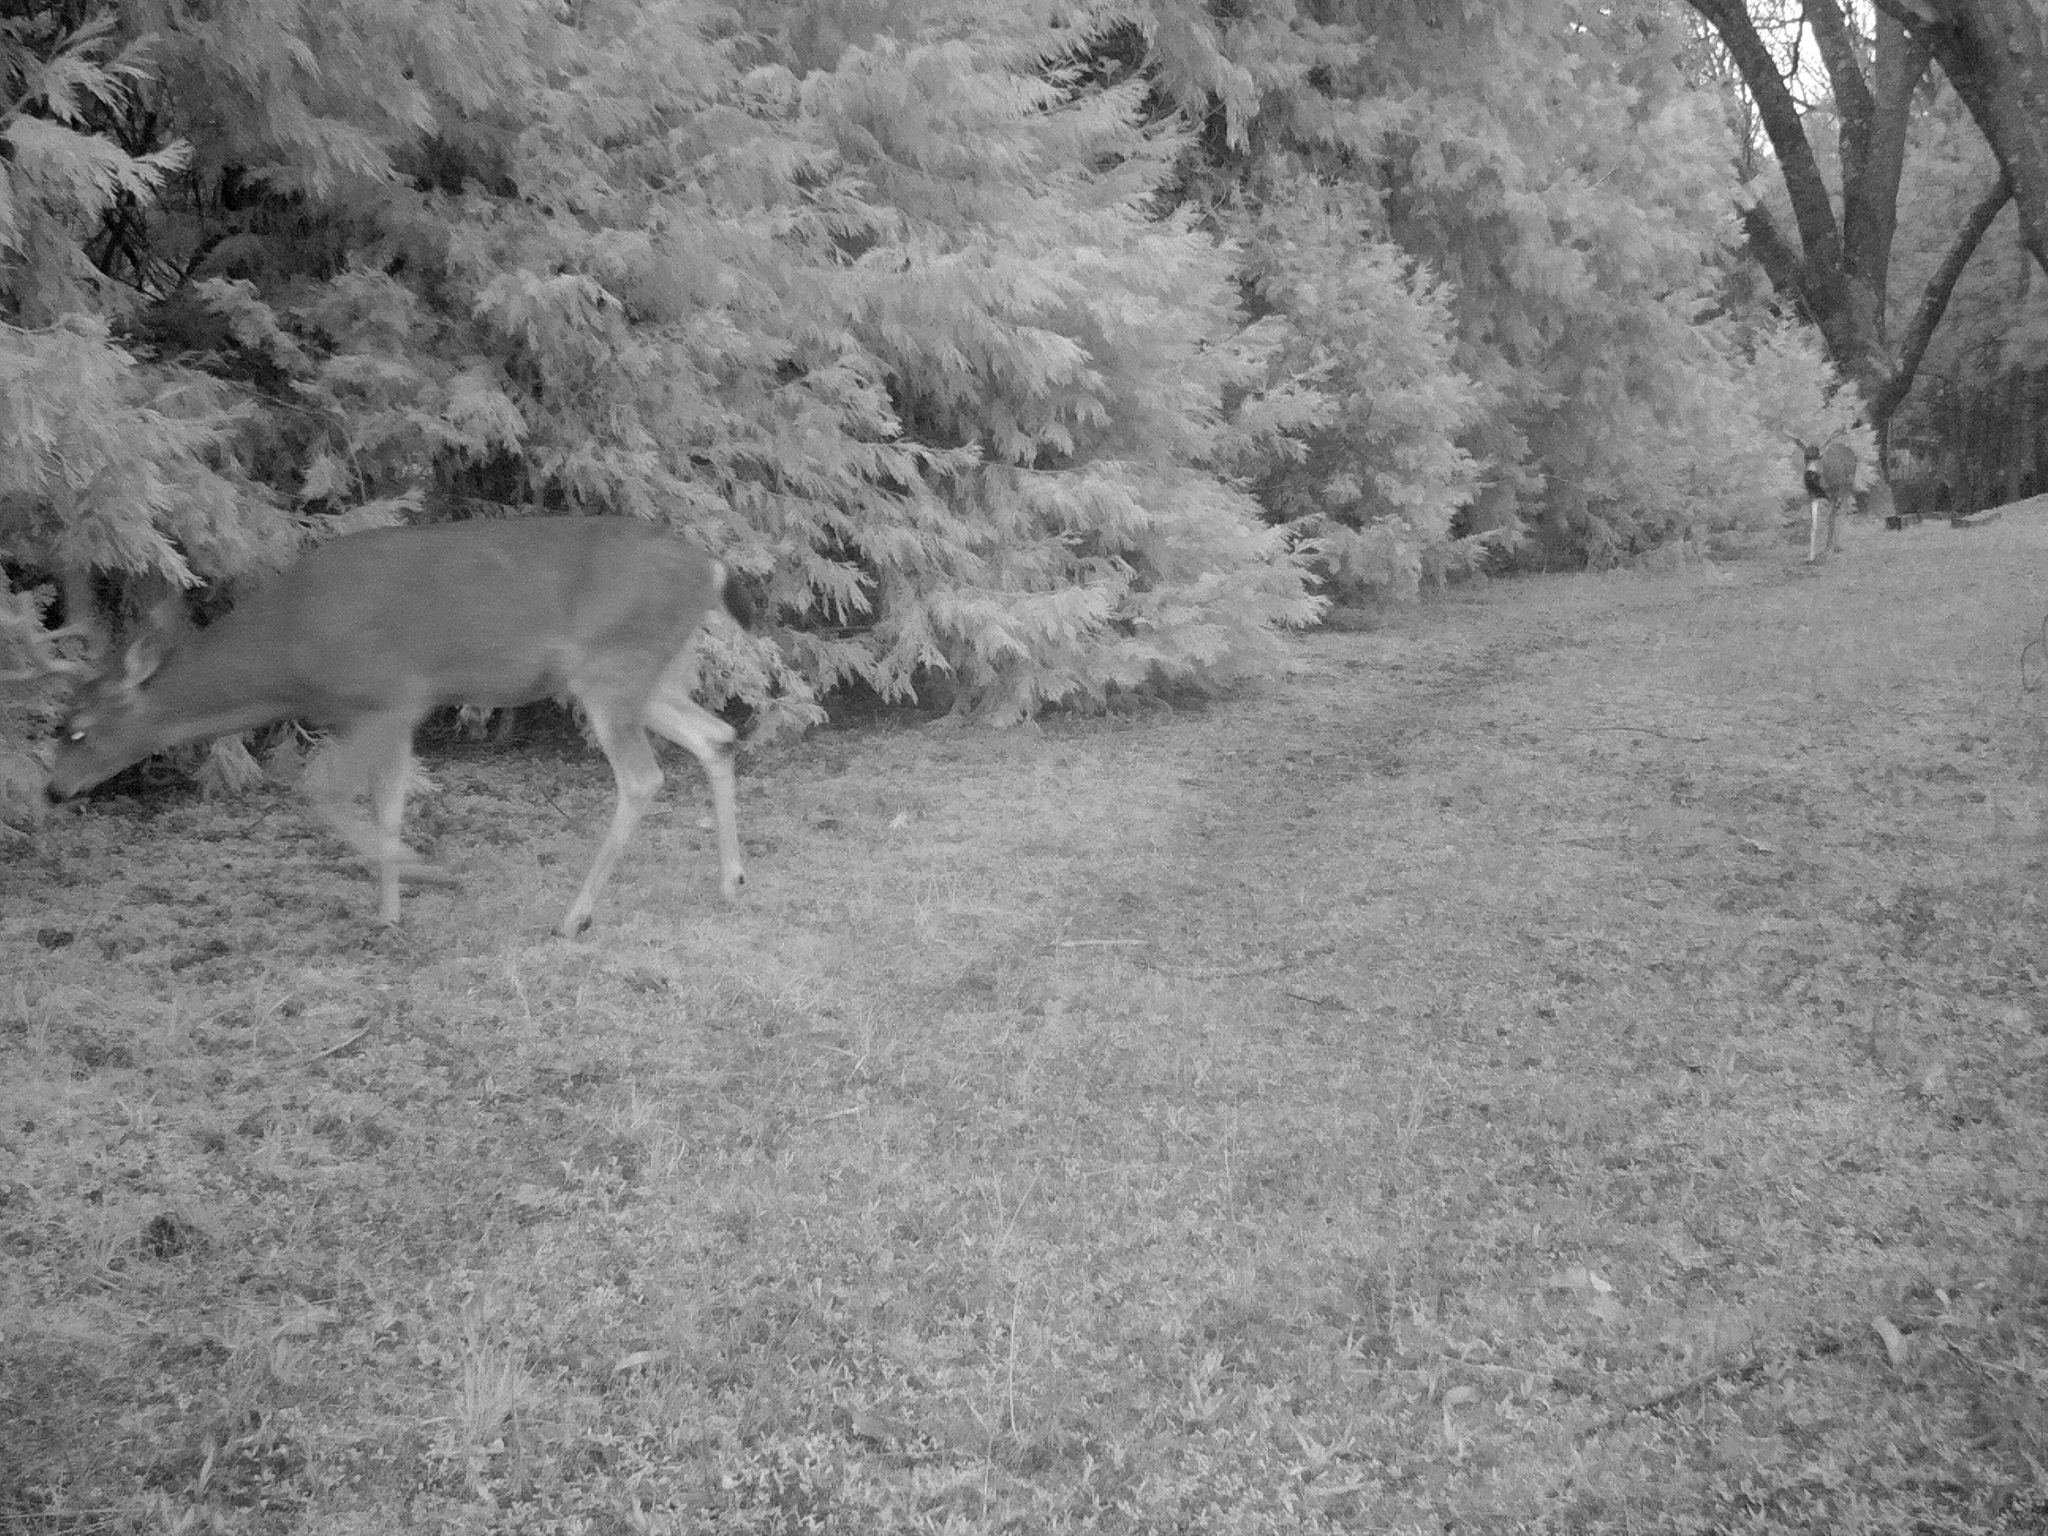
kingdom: Animalia
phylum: Chordata
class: Mammalia
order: Artiodactyla
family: Cervidae
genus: Odocoileus
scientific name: Odocoileus hemionus
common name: Mule deer
